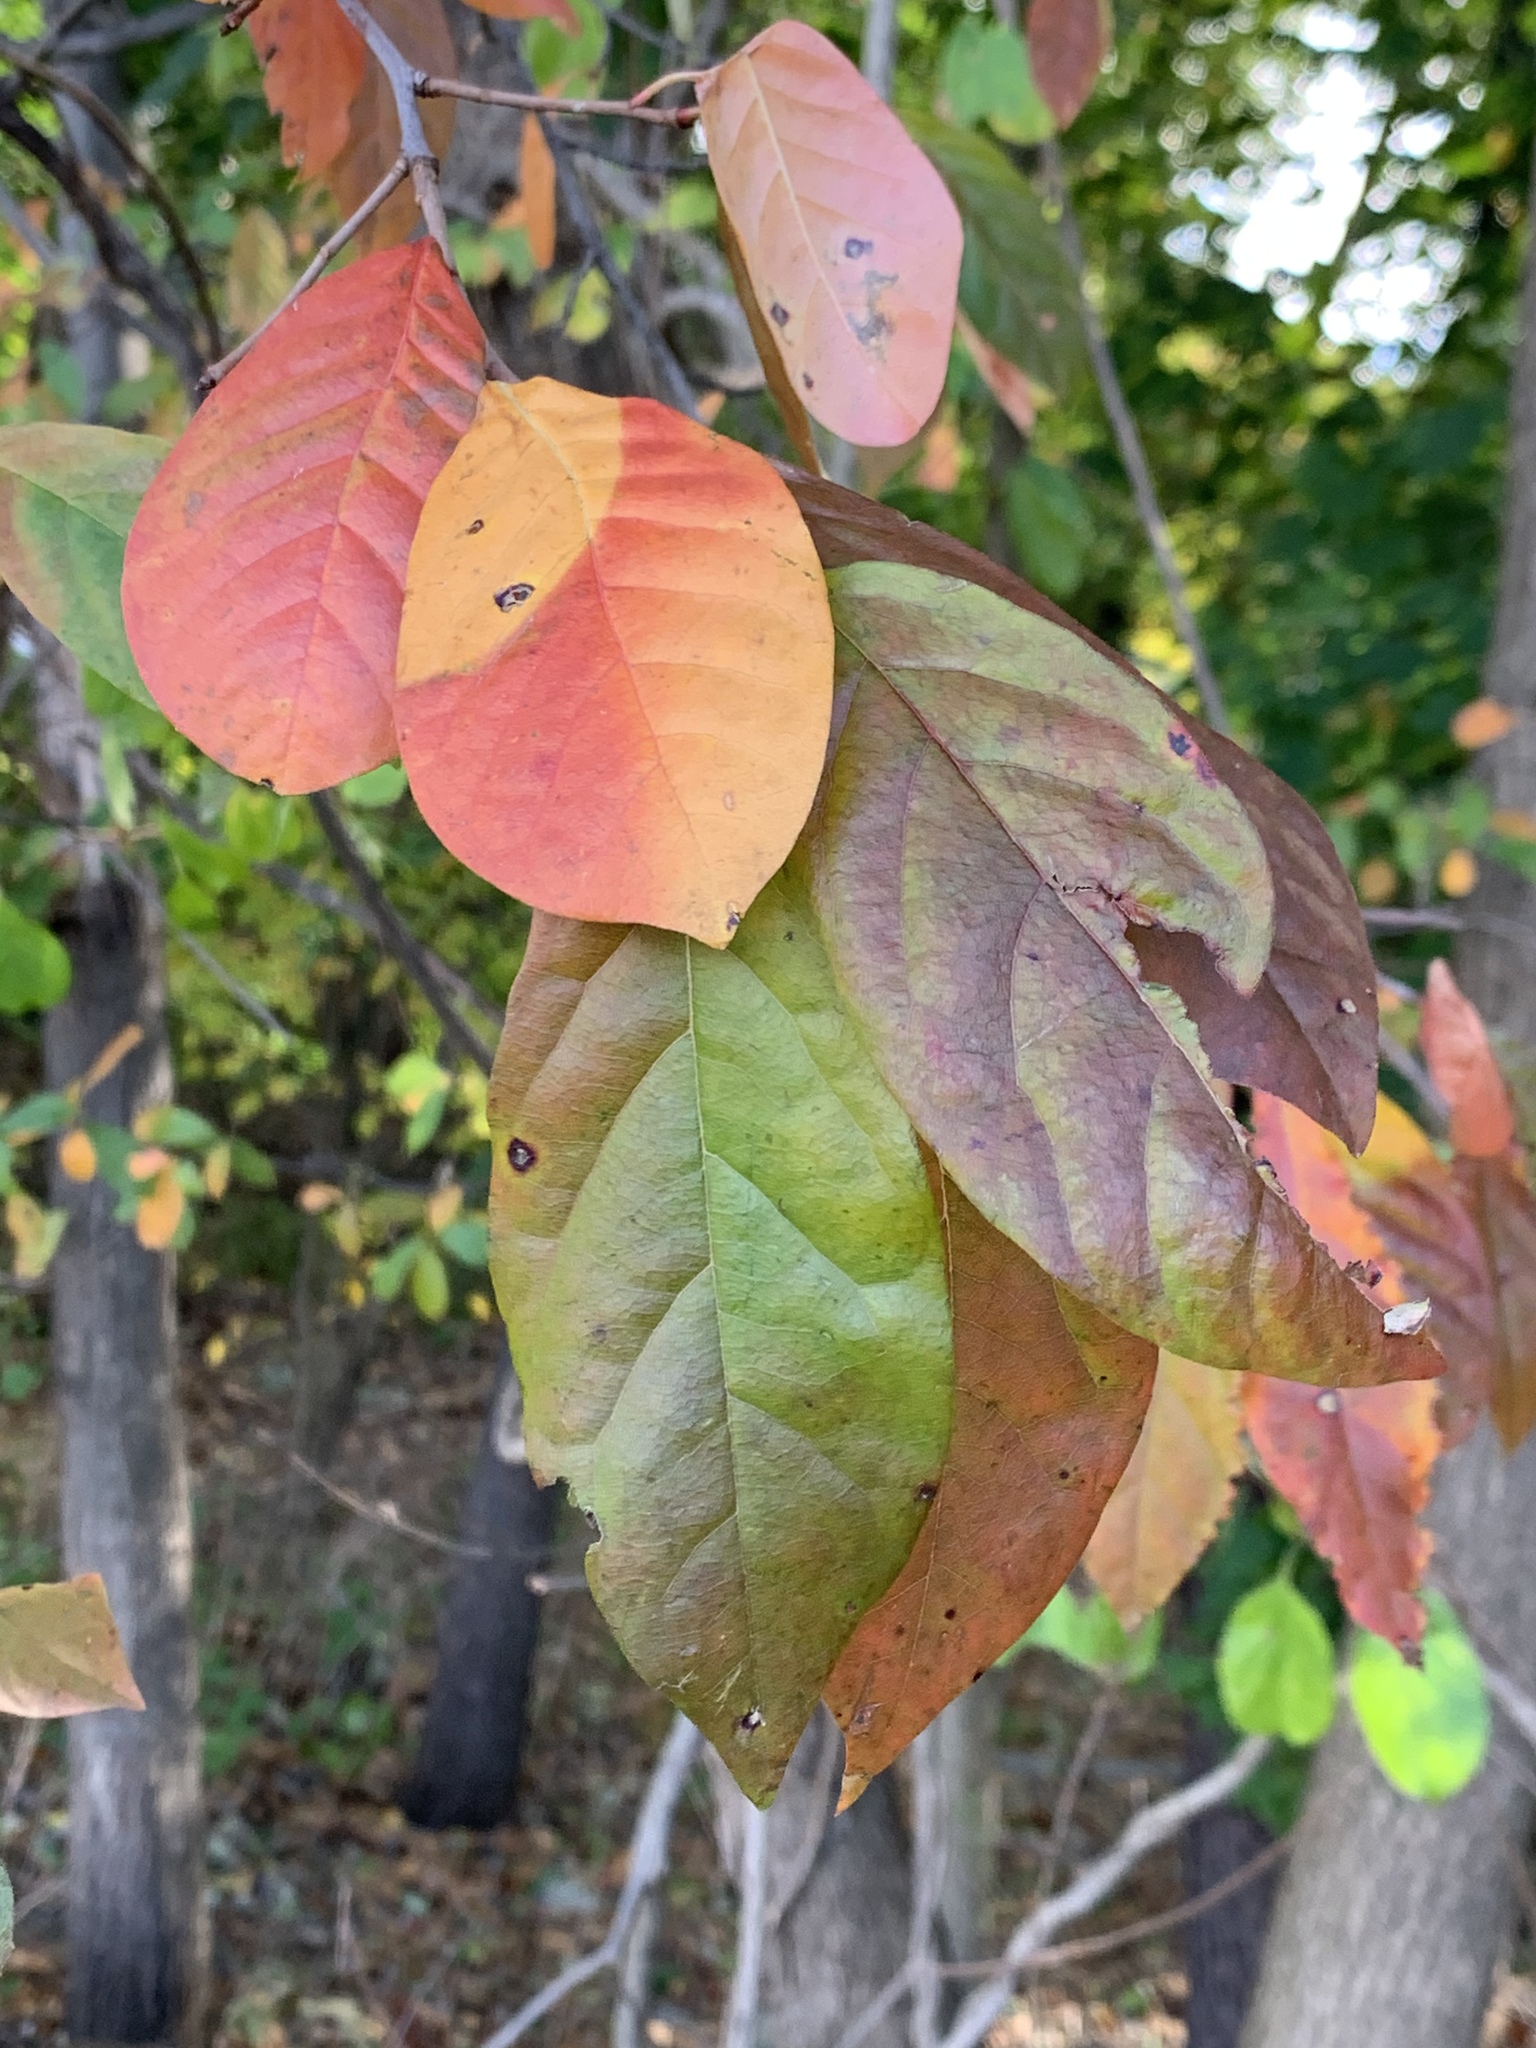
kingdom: Plantae
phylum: Tracheophyta
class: Magnoliopsida
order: Cornales
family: Nyssaceae
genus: Nyssa
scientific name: Nyssa sylvatica
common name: Black tupelo
